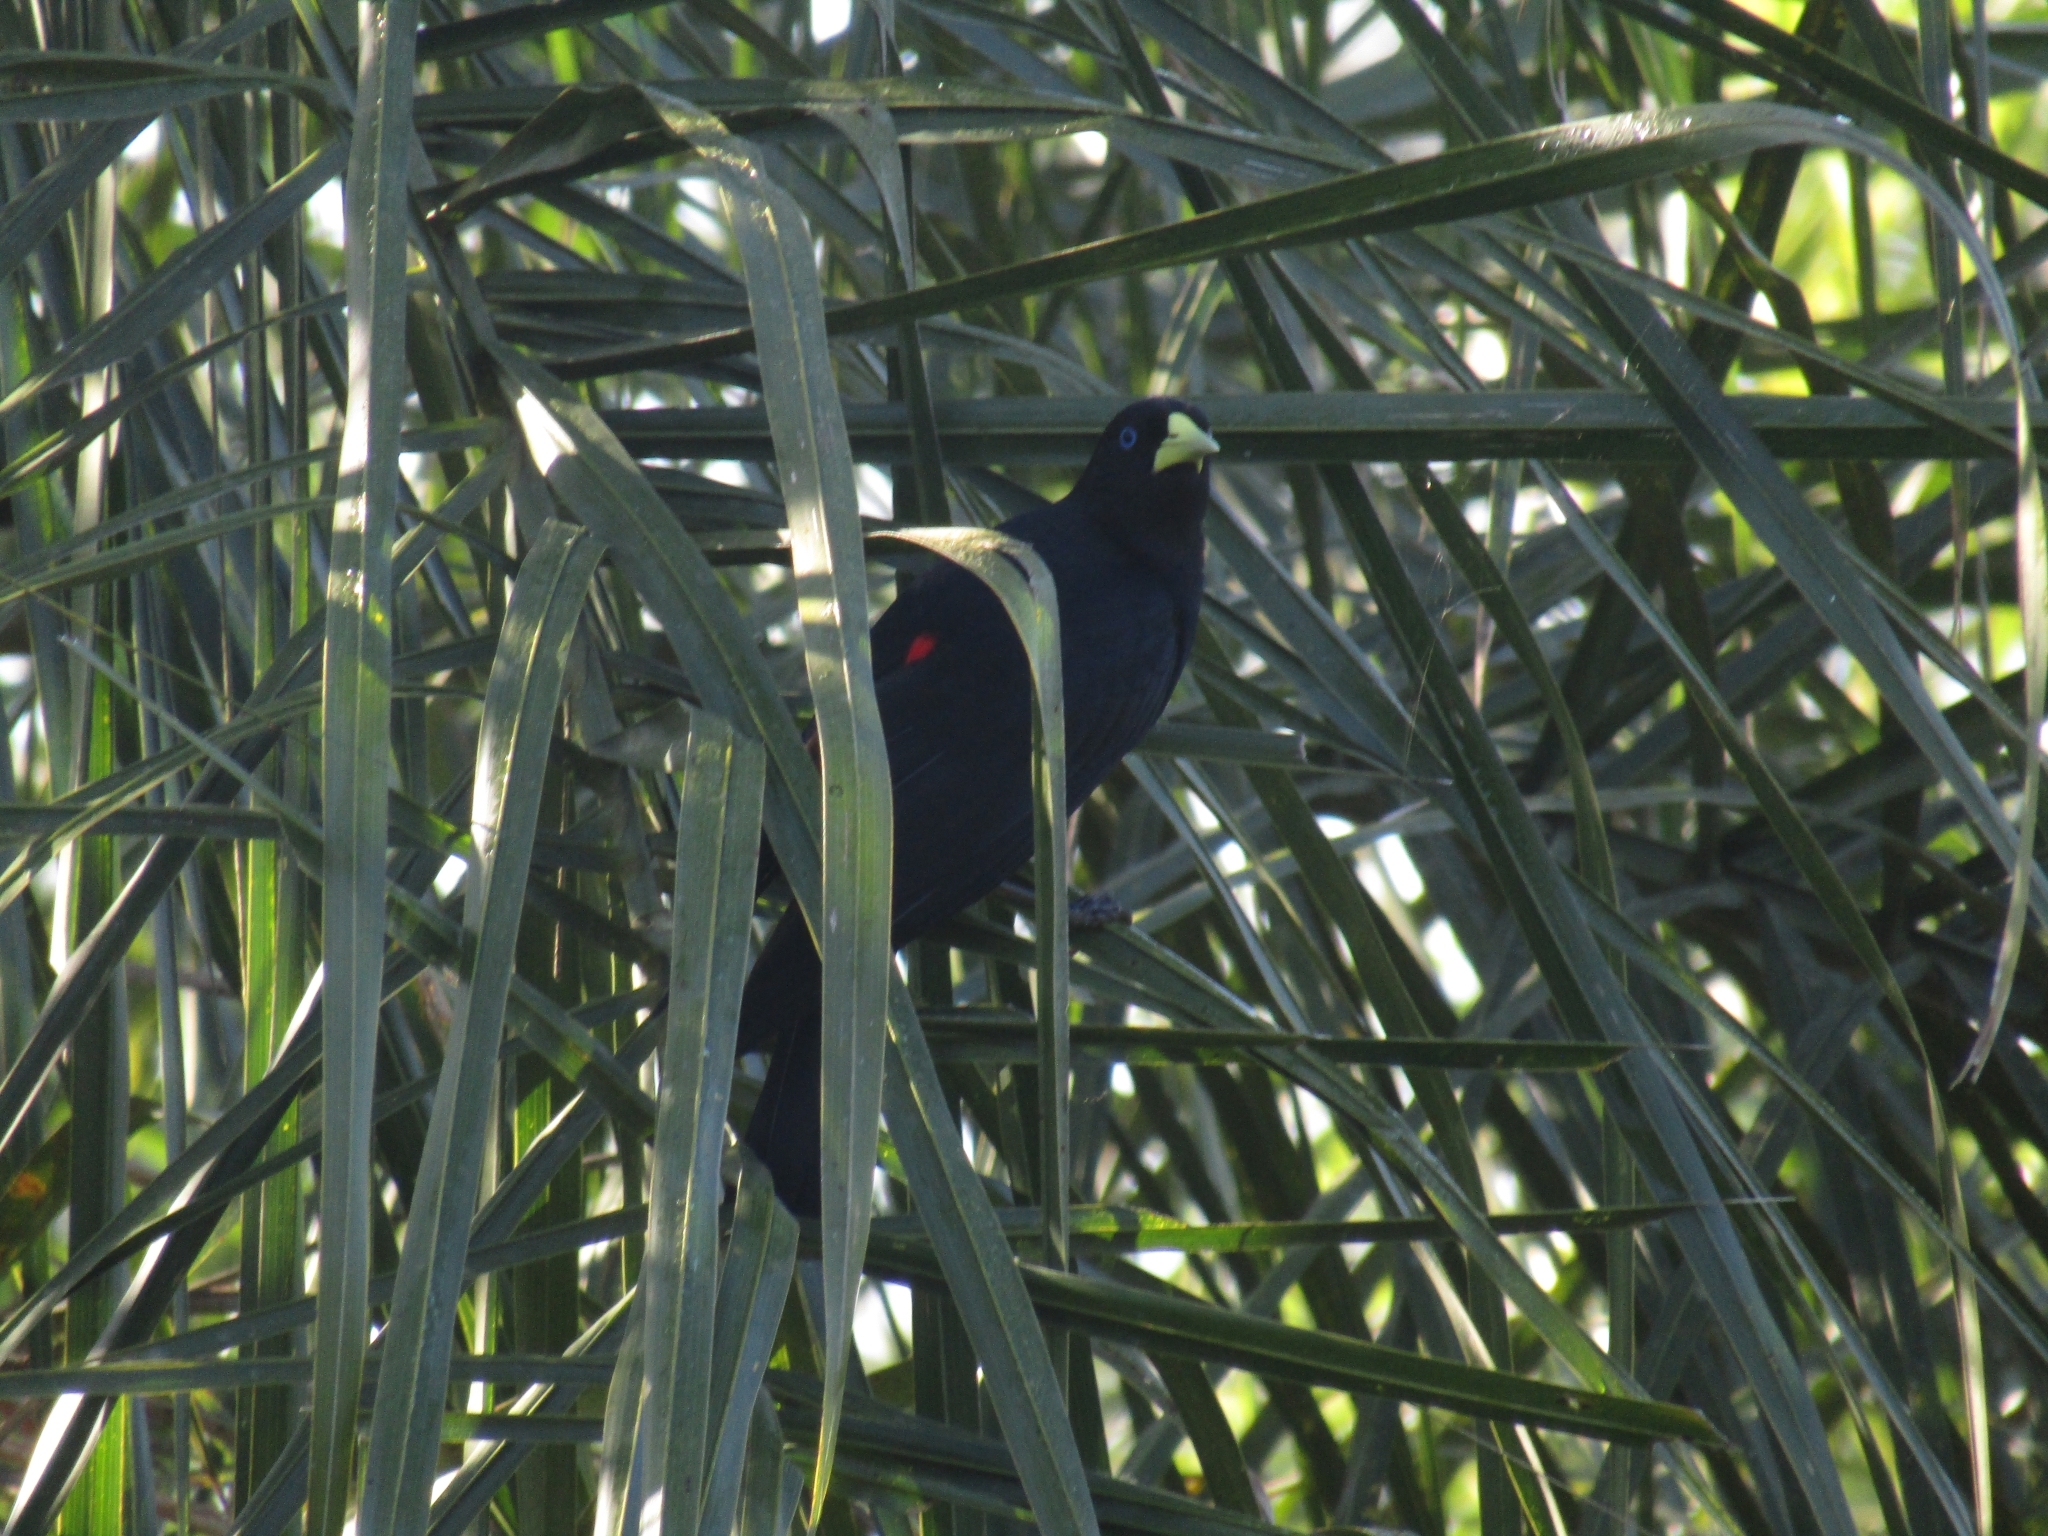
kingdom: Animalia
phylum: Chordata
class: Aves
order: Passeriformes
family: Icteridae
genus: Cacicus
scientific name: Cacicus haemorrhous
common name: Red-rumped cacique
